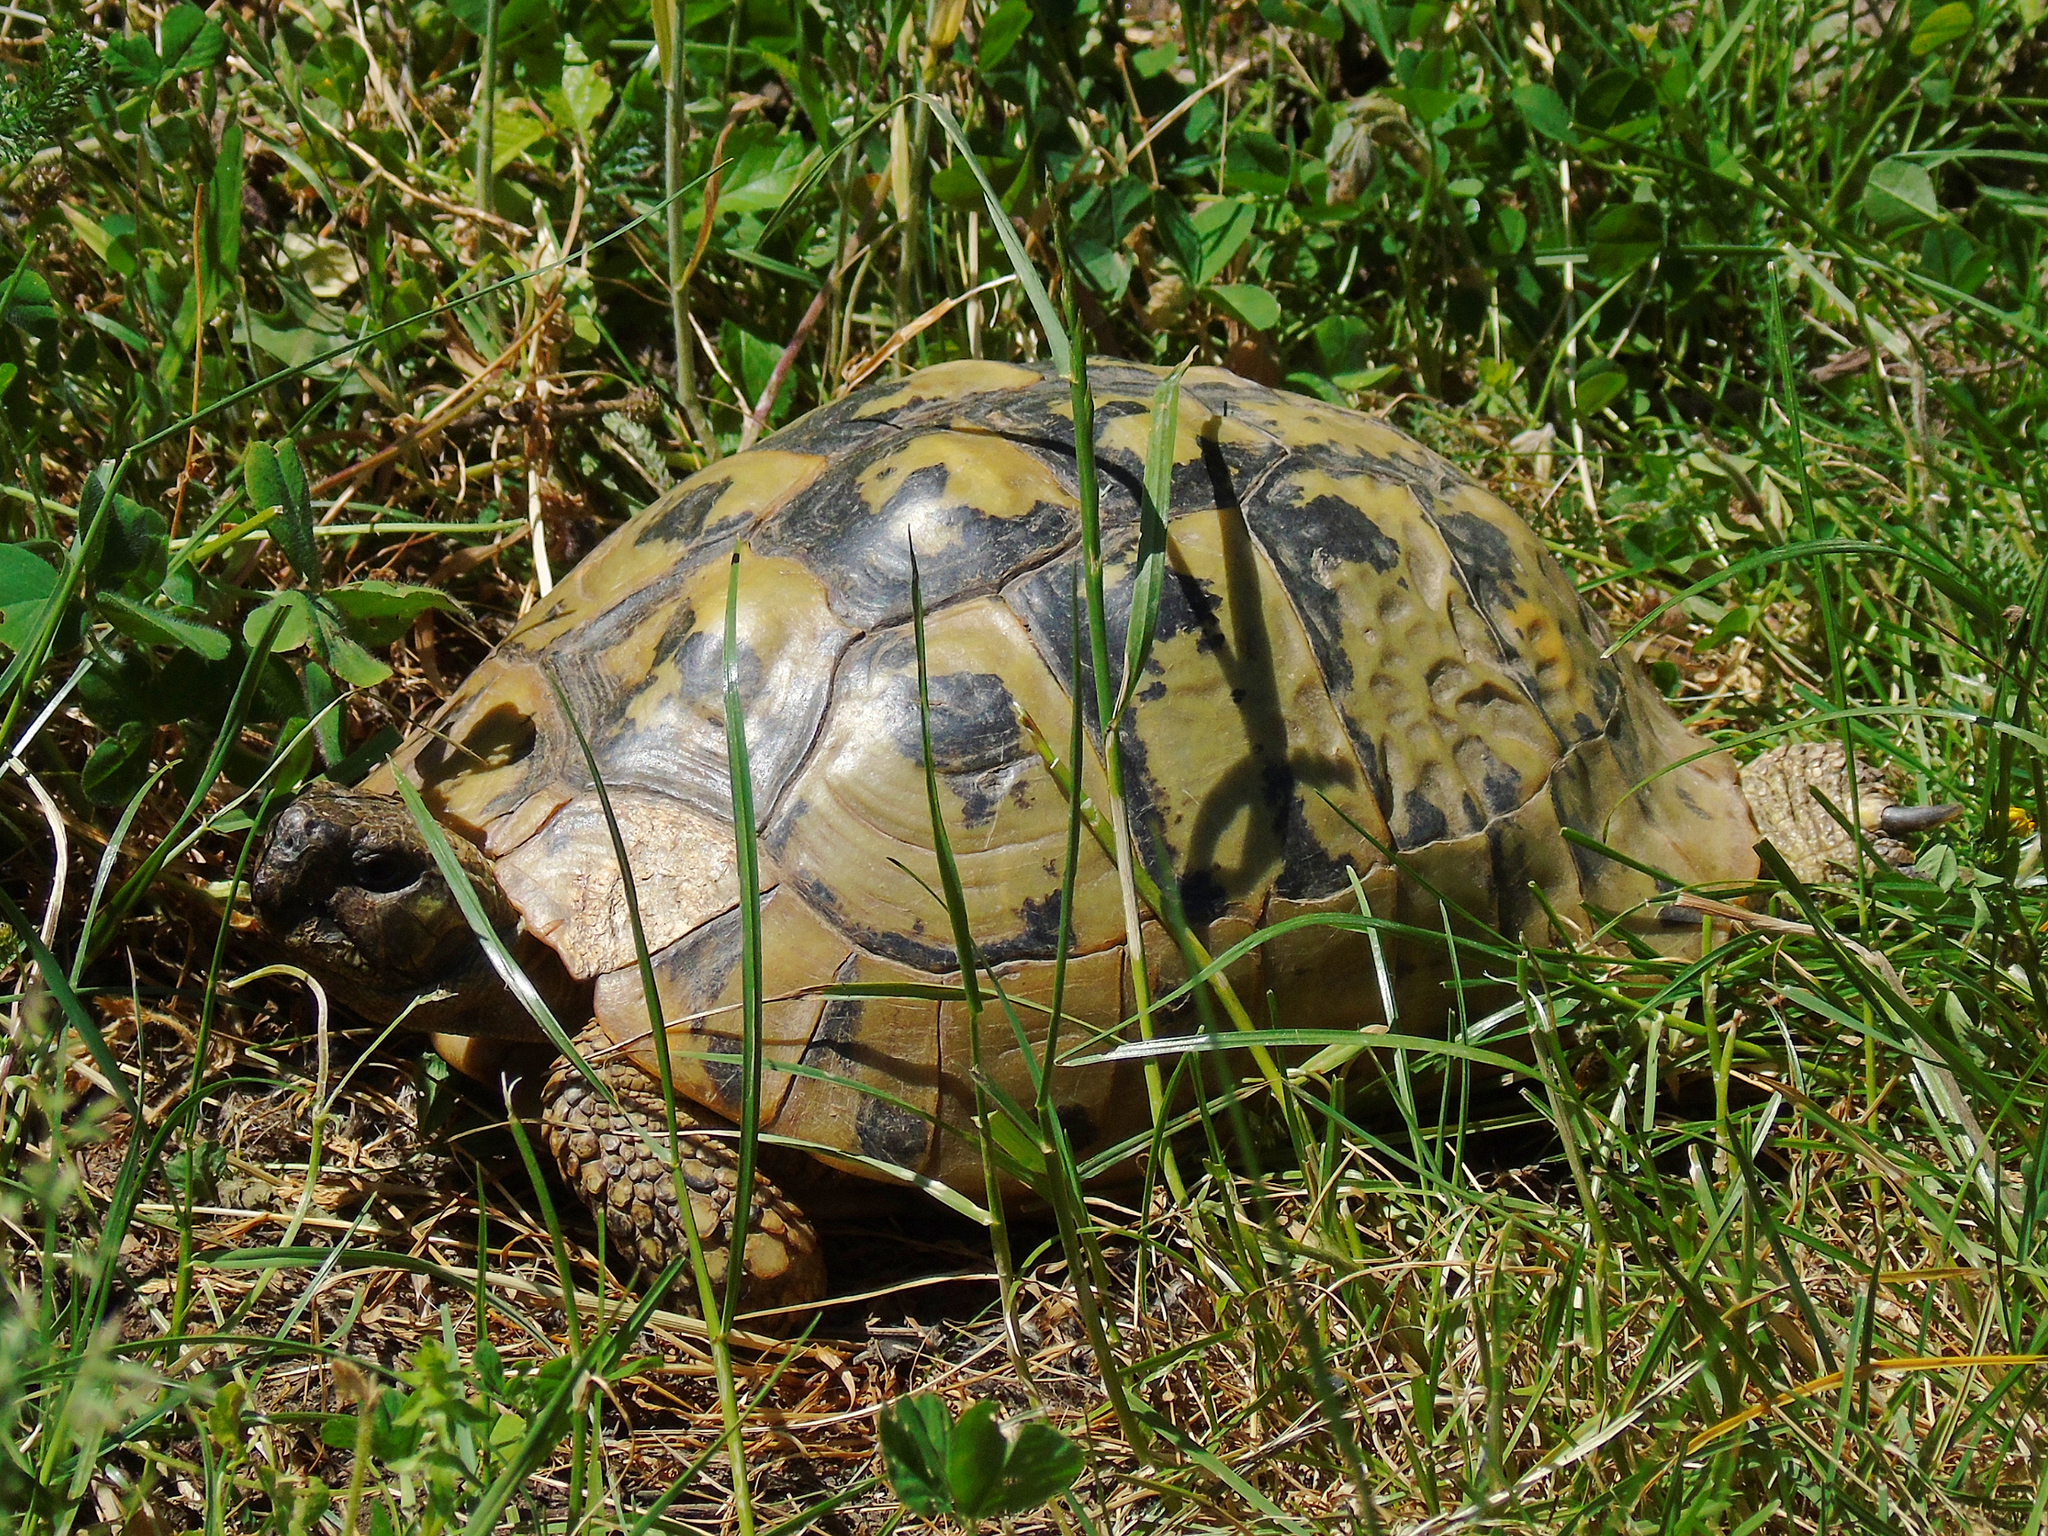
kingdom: Animalia
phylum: Chordata
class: Testudines
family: Testudinidae
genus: Testudo
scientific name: Testudo hermanni
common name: Hermann's tortoise
